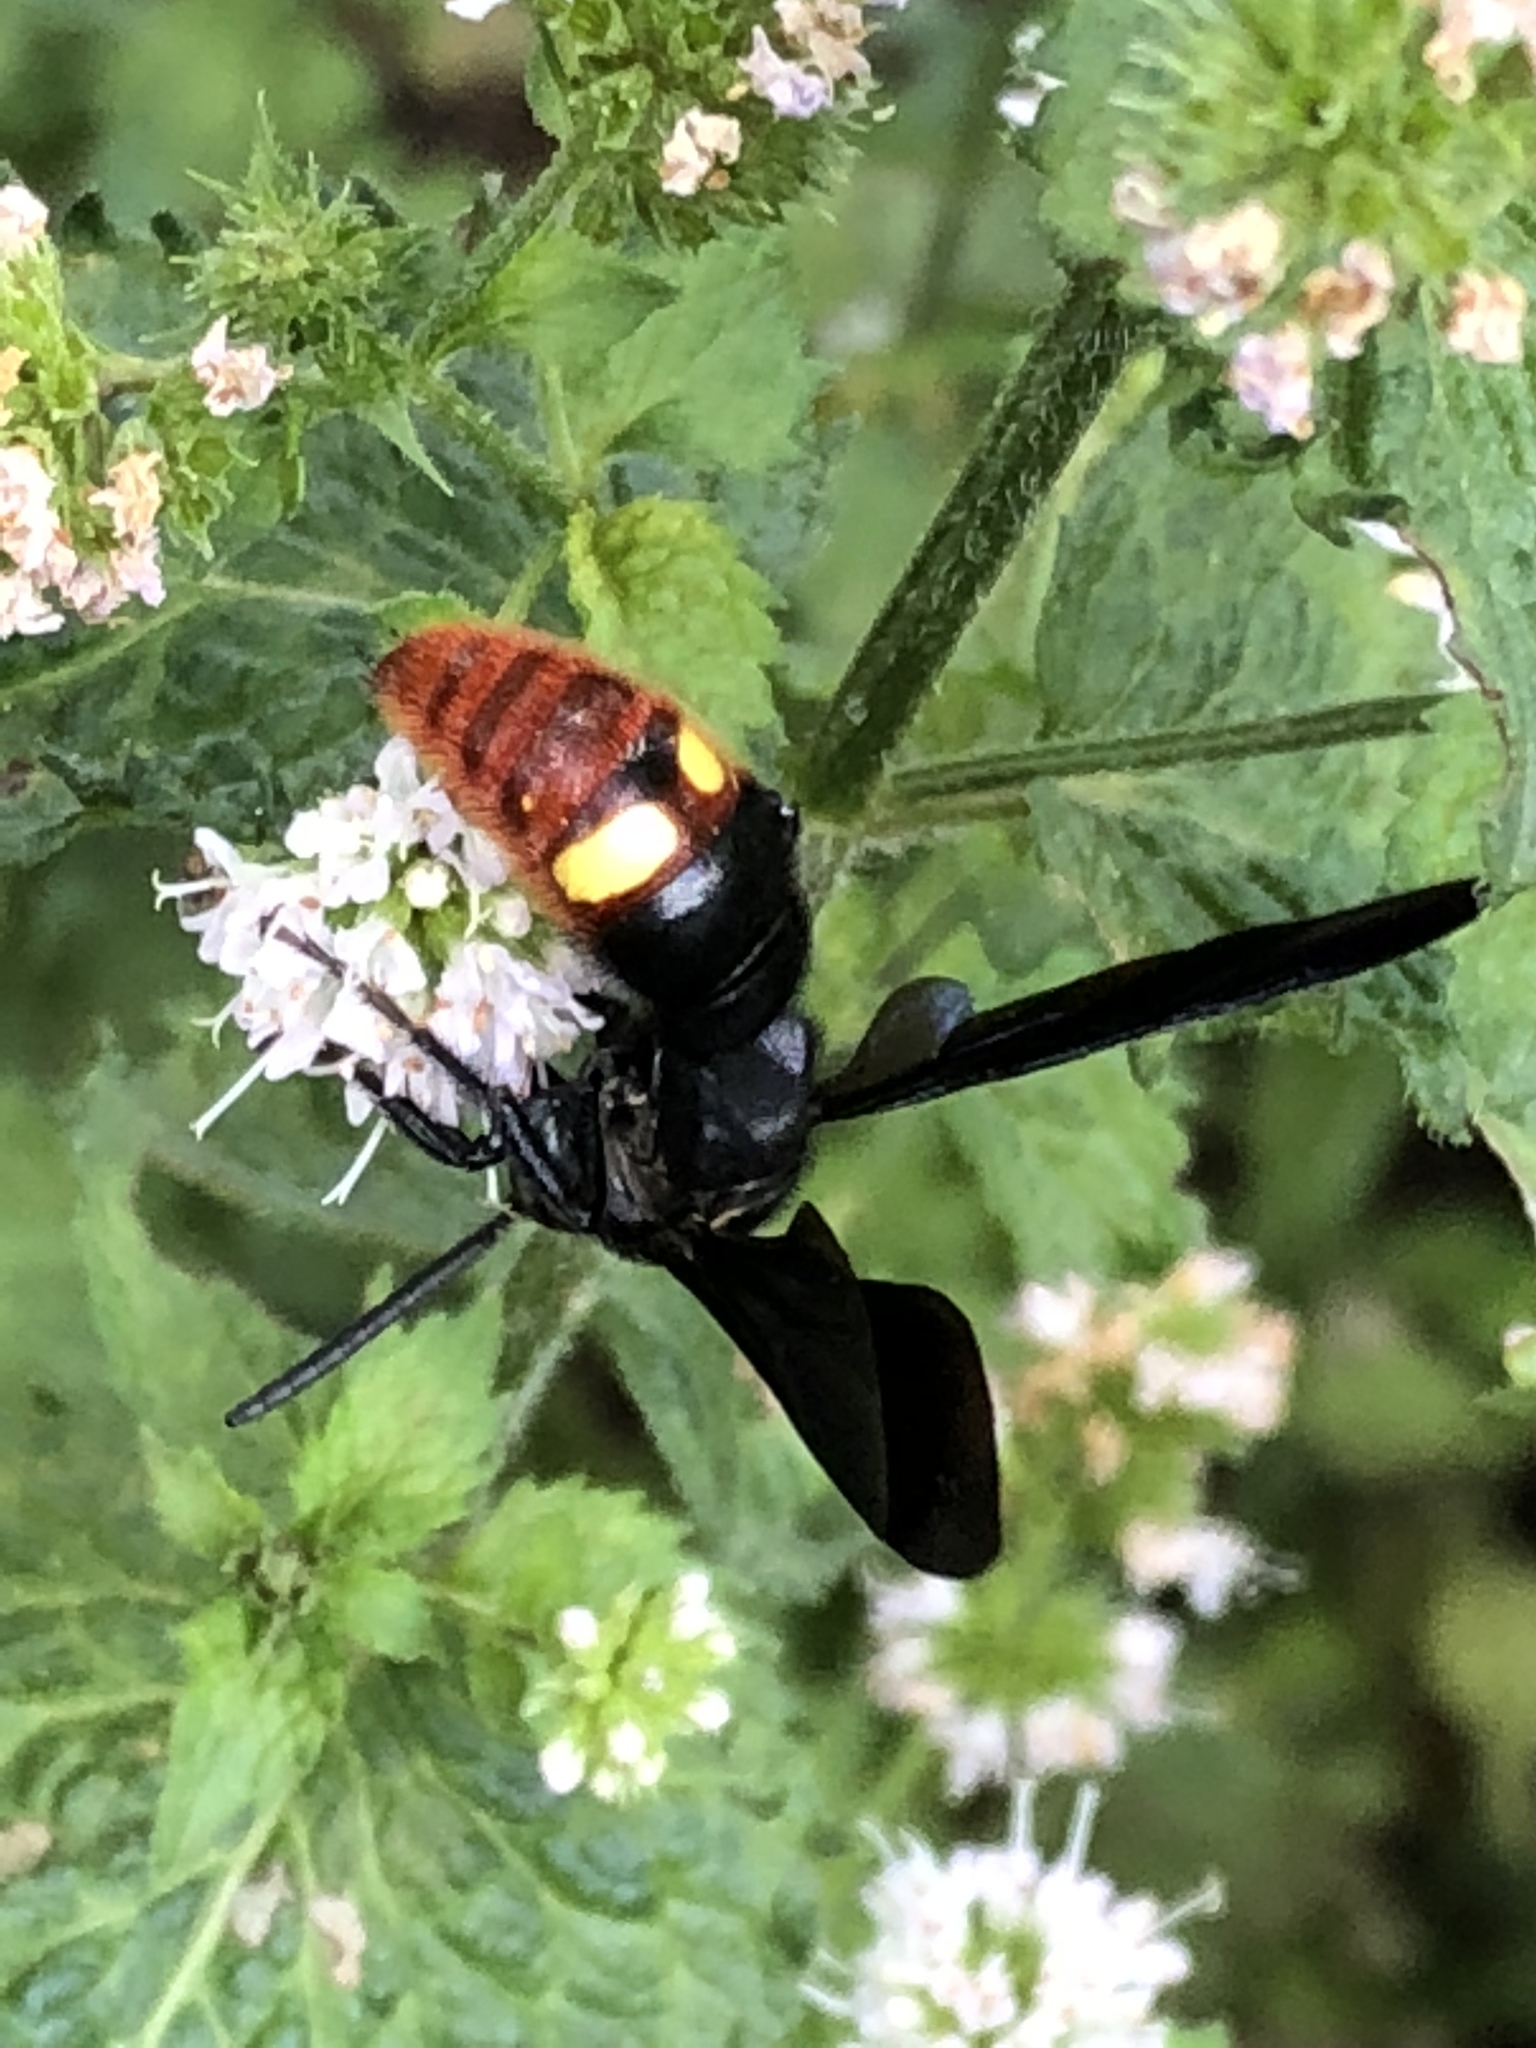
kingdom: Animalia
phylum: Arthropoda
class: Insecta
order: Hymenoptera
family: Scoliidae
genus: Scolia
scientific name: Scolia dubia
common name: Blue-winged scoliid wasp
